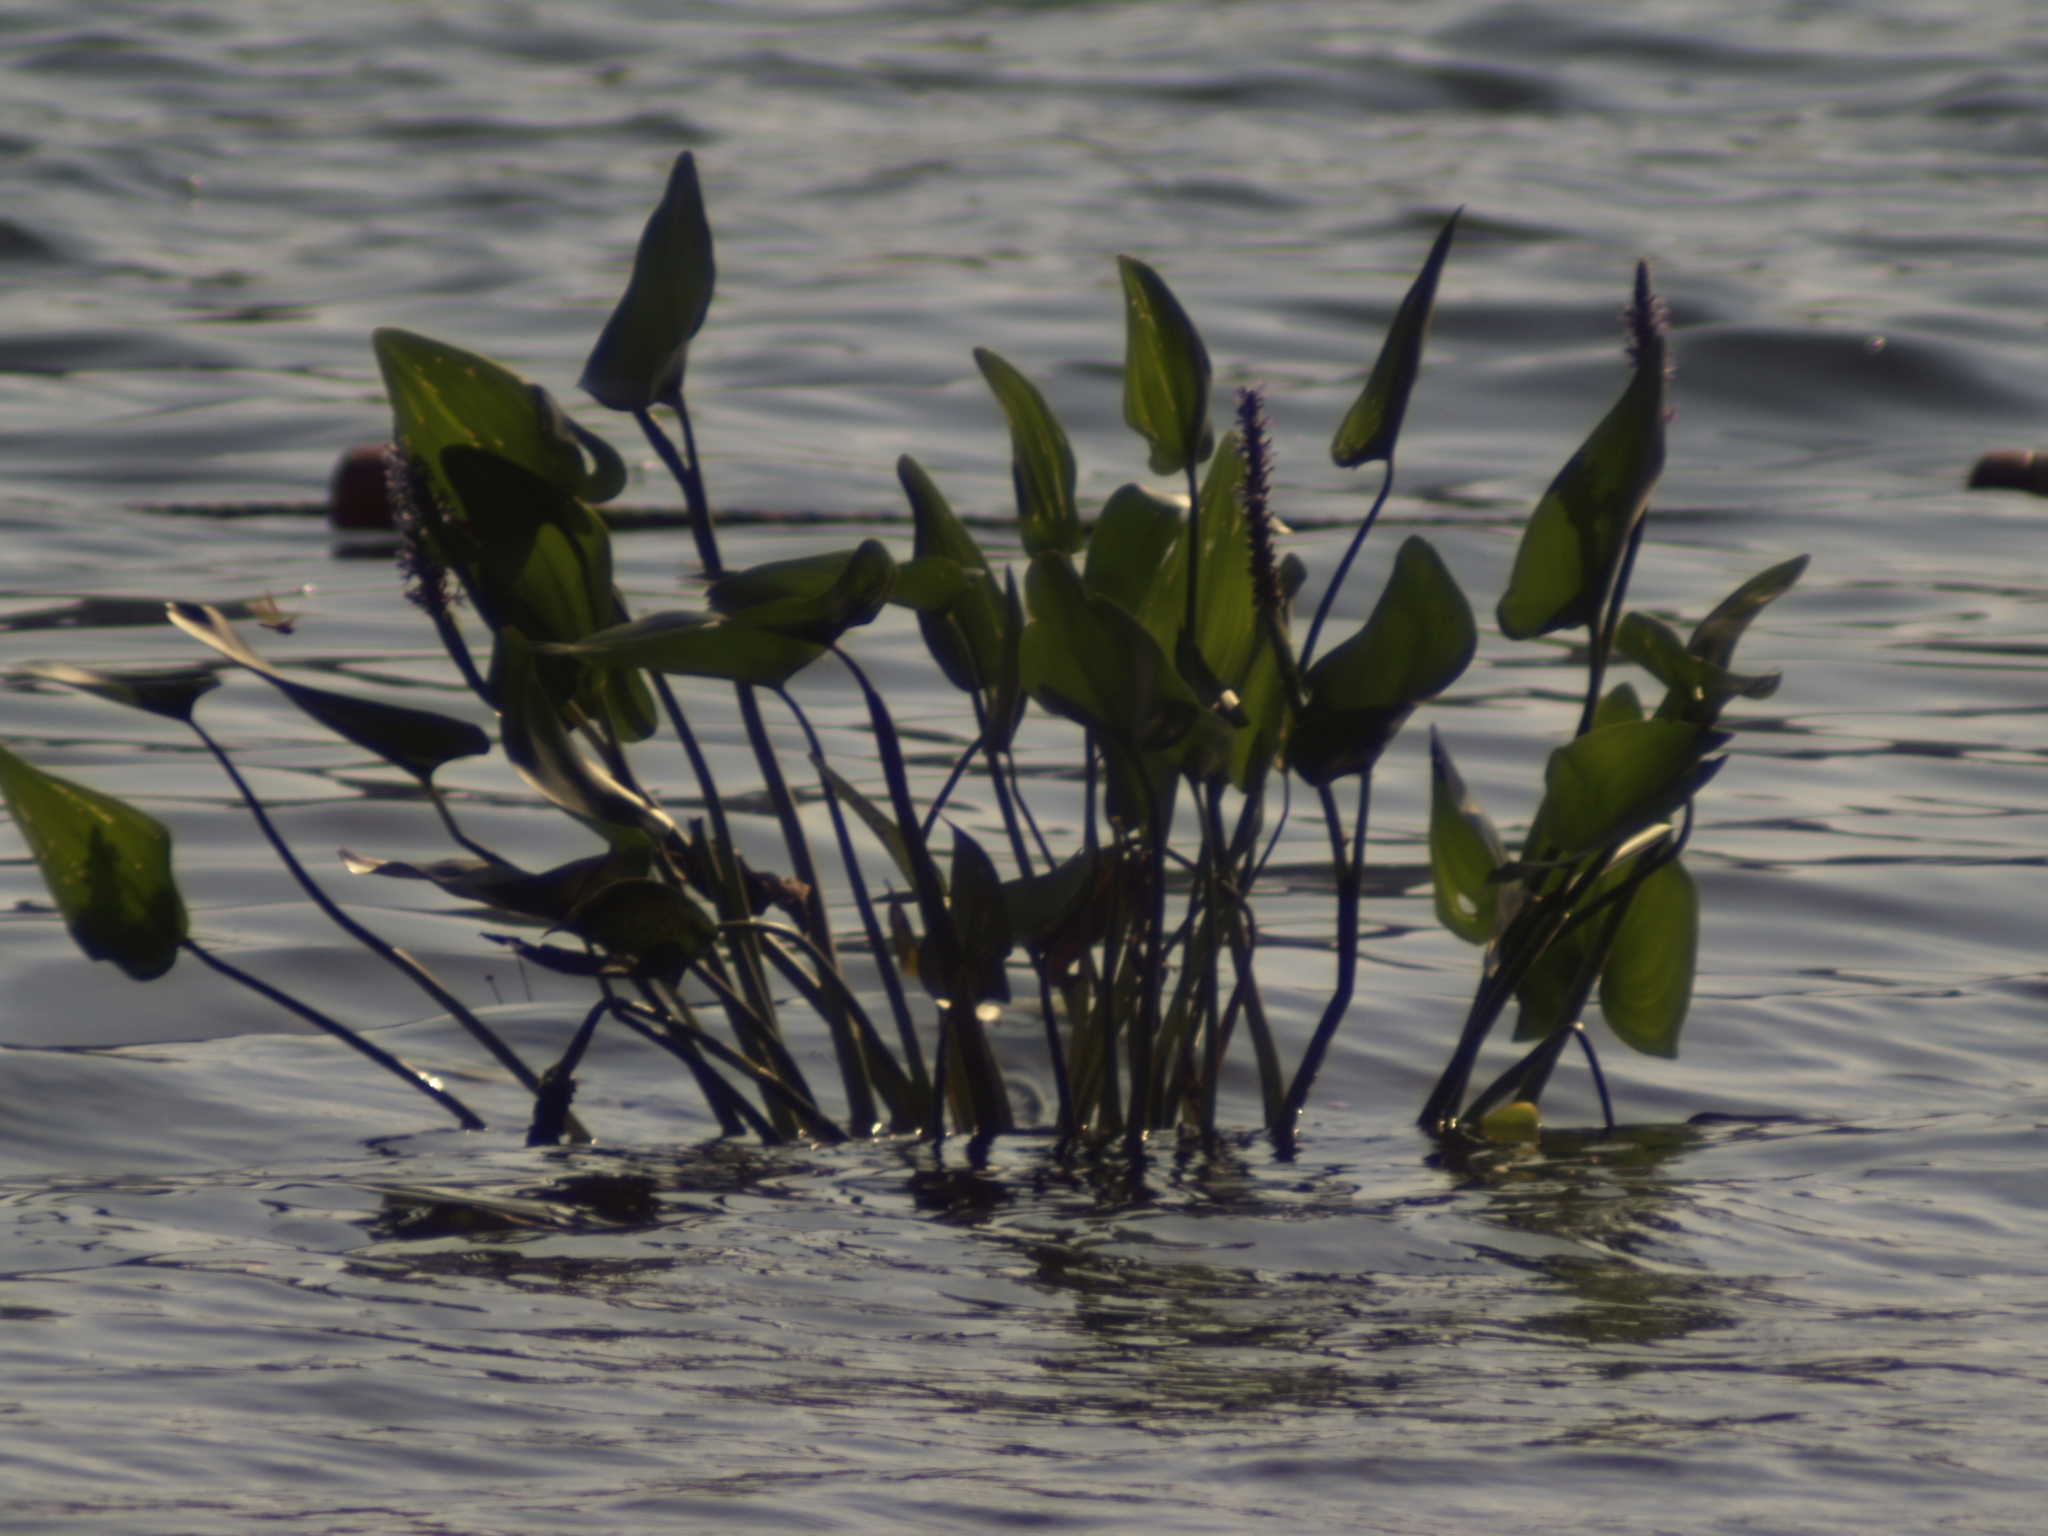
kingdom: Plantae
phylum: Tracheophyta
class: Liliopsida
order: Commelinales
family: Pontederiaceae
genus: Pontederia
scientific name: Pontederia cordata
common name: Pickerelweed
